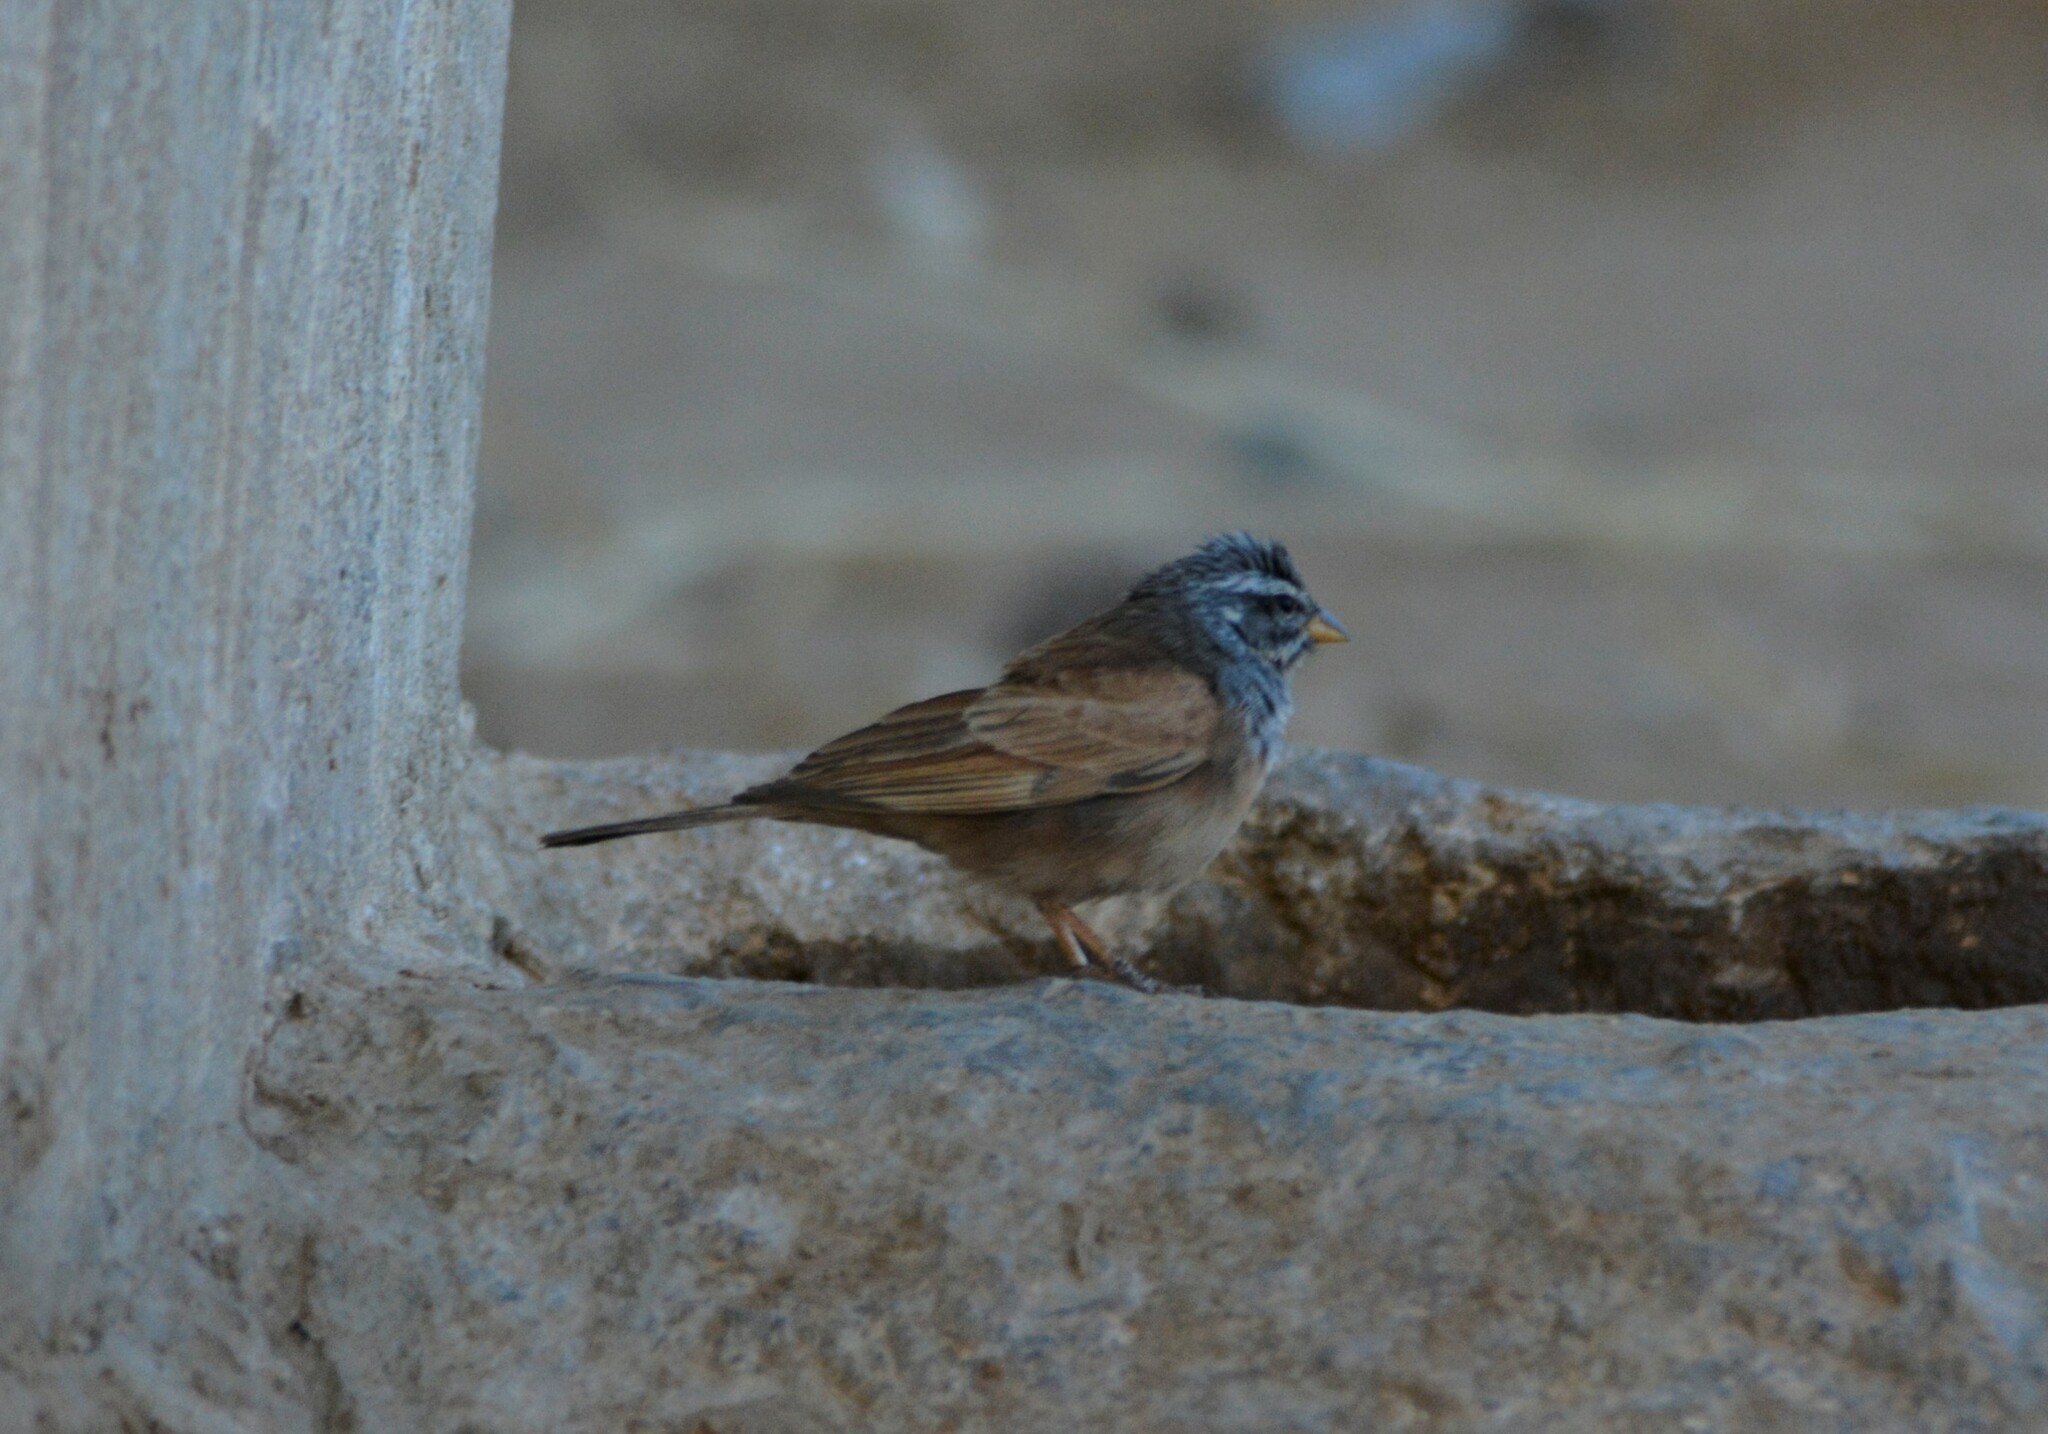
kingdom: Animalia
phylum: Chordata
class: Aves
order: Passeriformes
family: Emberizidae
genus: Emberiza
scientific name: Emberiza sahari
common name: House bunting
